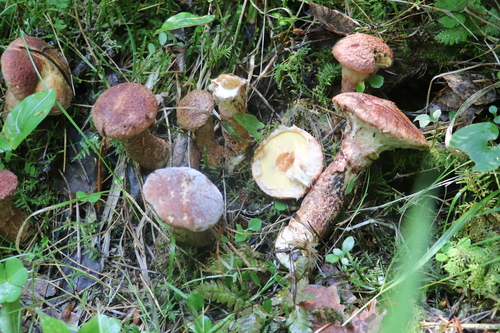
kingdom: Fungi
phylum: Basidiomycota
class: Agaricomycetes
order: Boletales
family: Suillaceae
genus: Suillus
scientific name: Suillus spraguei
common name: Painted suillus
